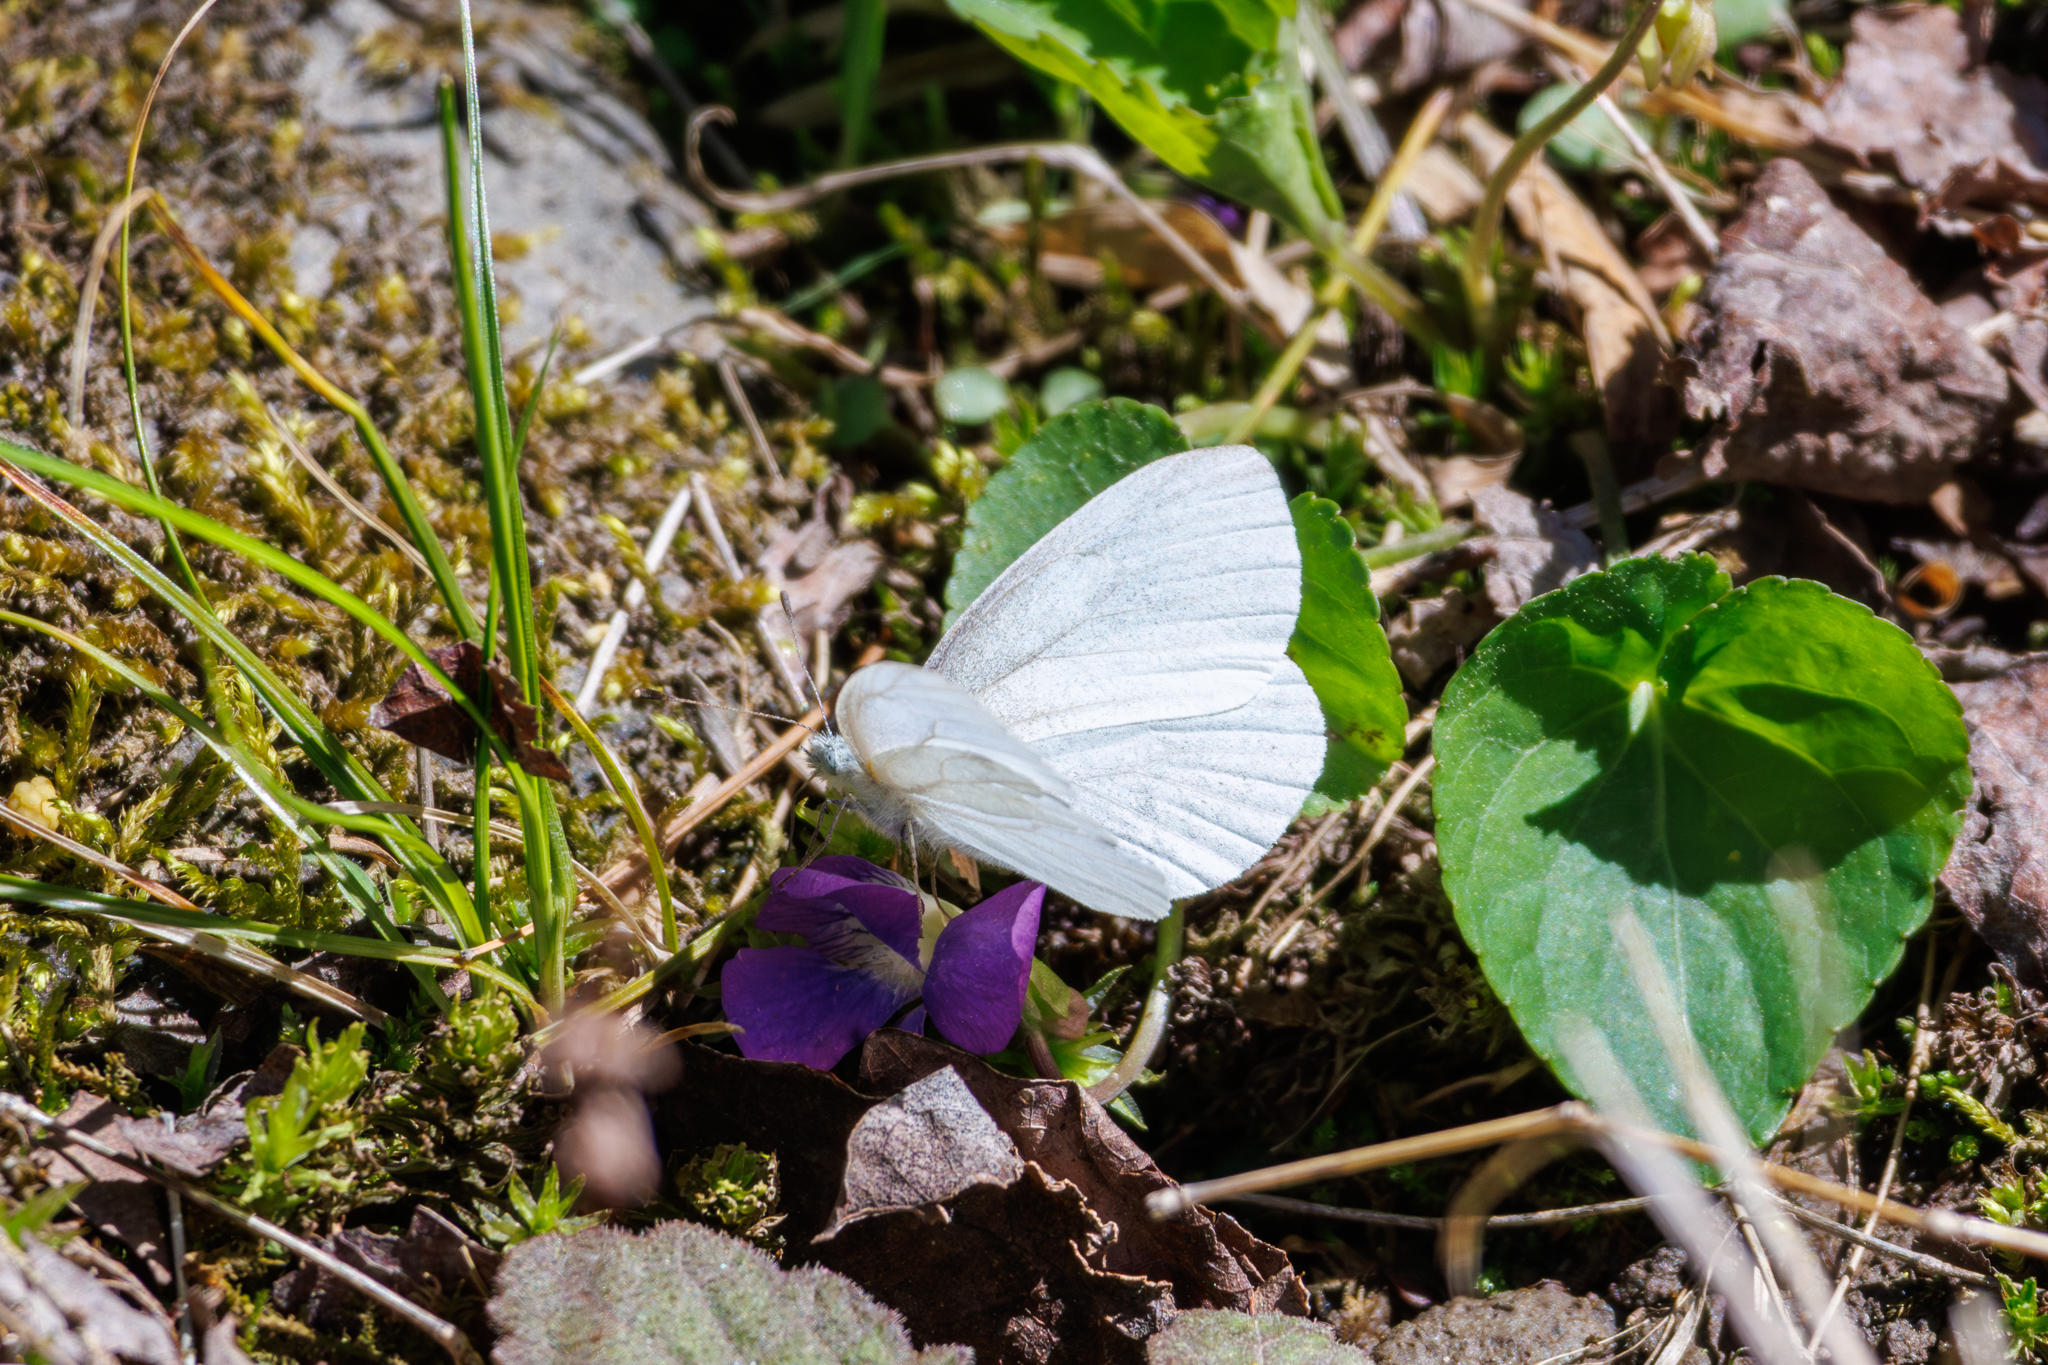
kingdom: Animalia
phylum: Arthropoda
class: Insecta
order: Lepidoptera
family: Pieridae
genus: Pieris
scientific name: Pieris virginiensis
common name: West virginia white
